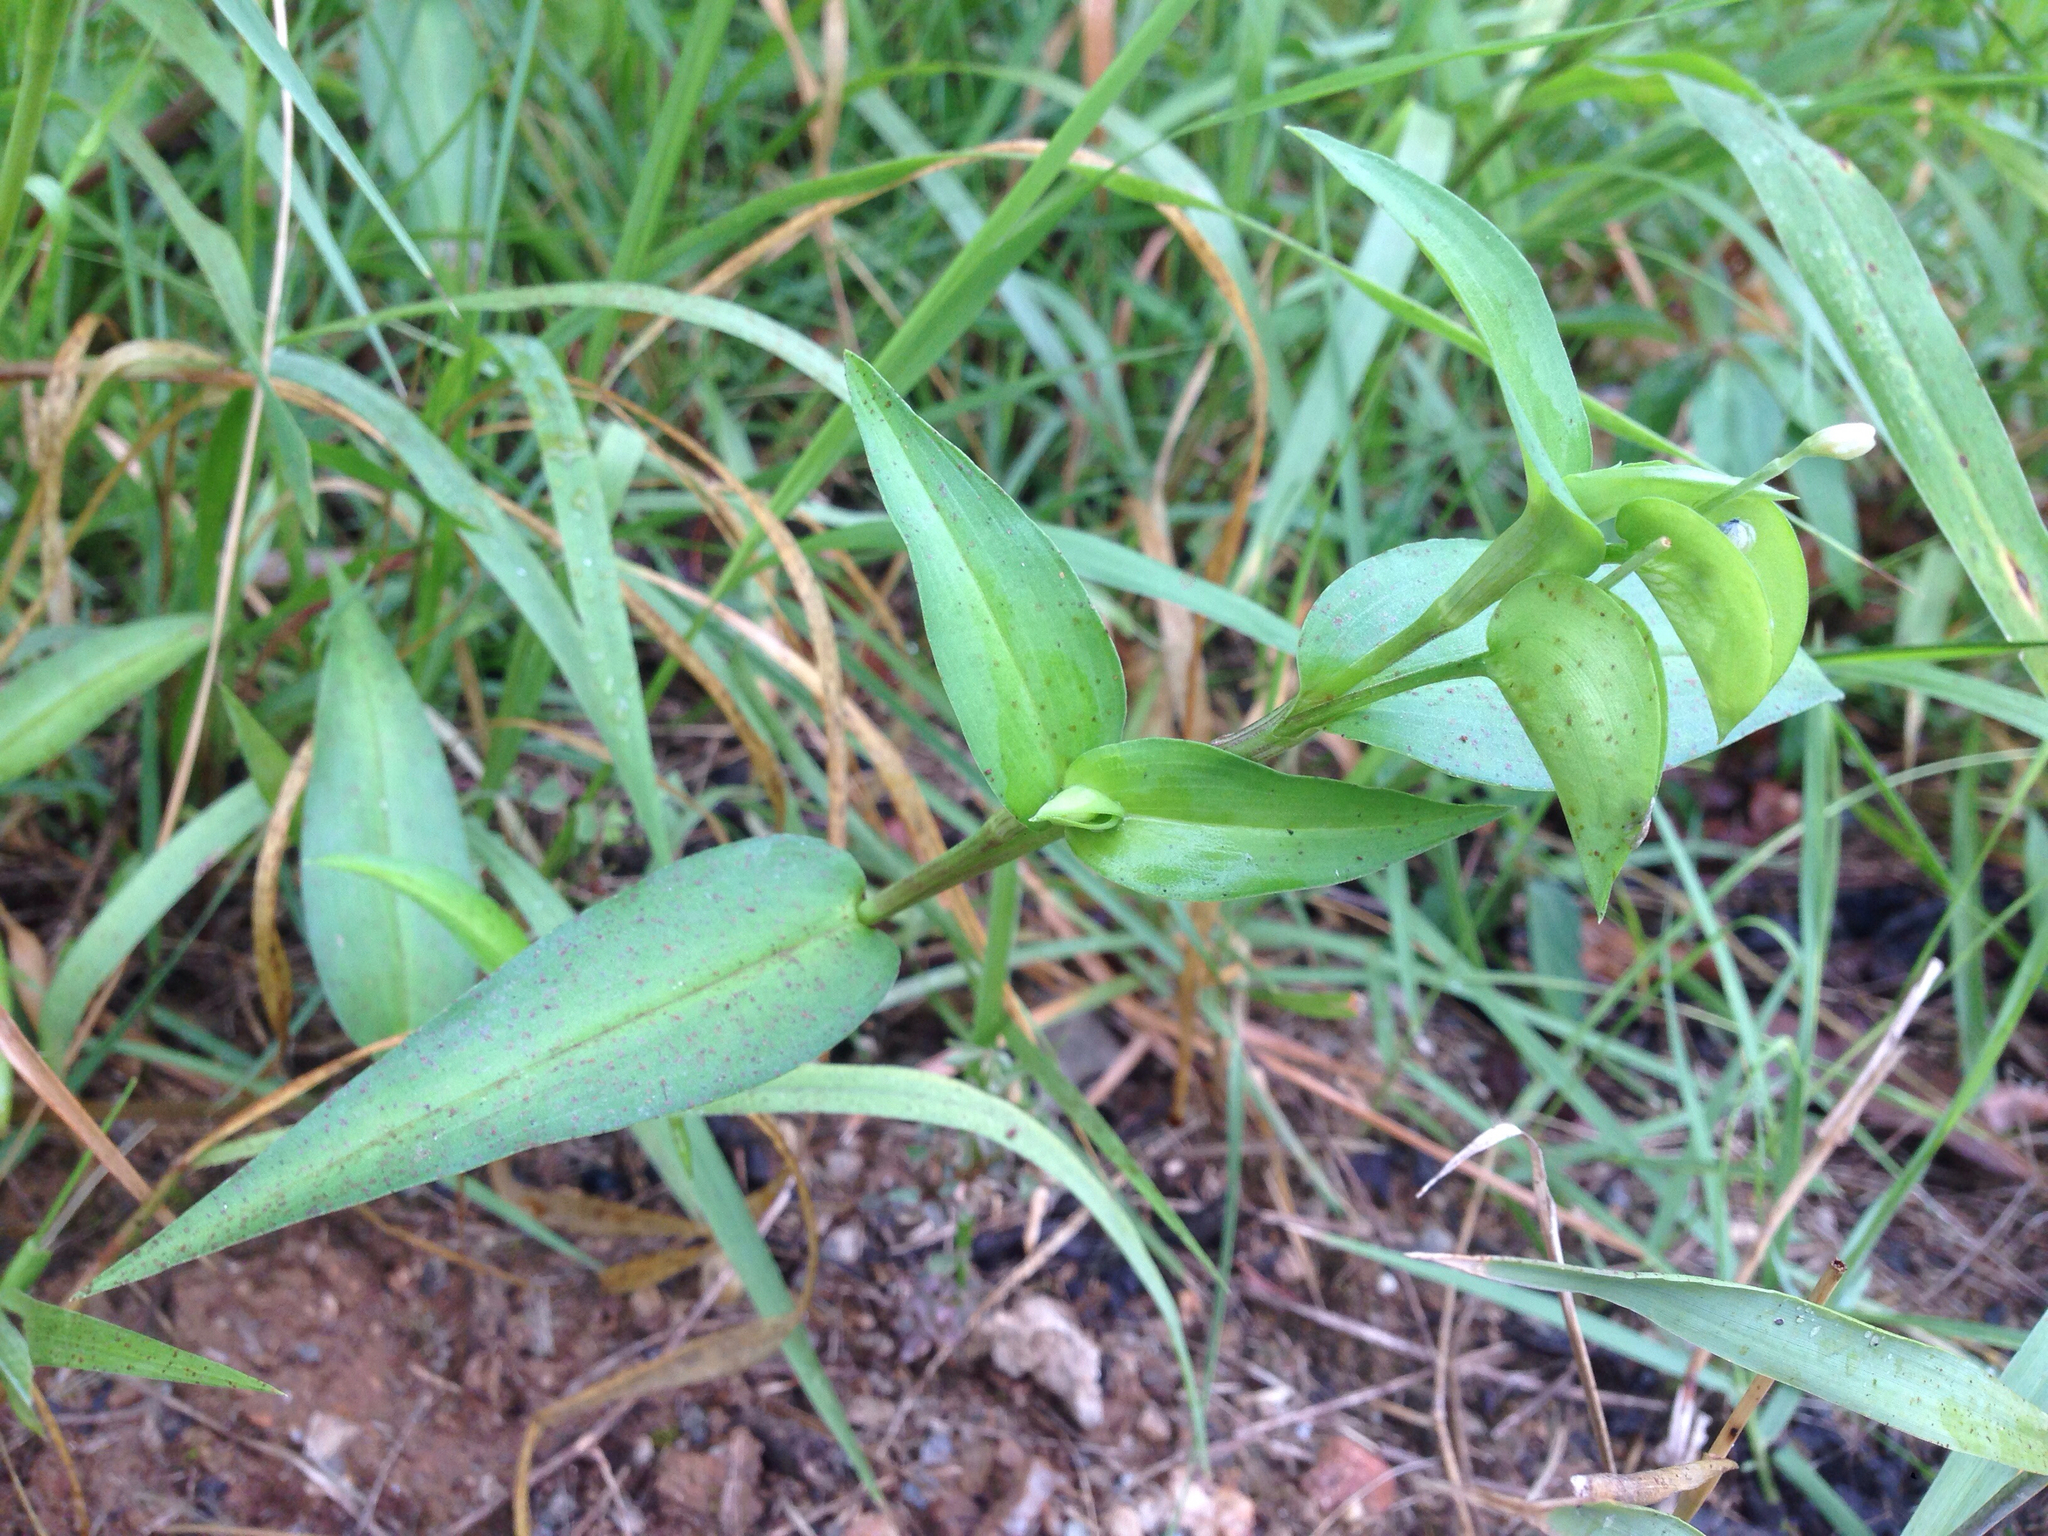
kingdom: Plantae
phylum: Tracheophyta
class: Liliopsida
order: Commelinales
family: Commelinaceae
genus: Commelina
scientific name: Commelina communis
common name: Asiatic dayflower
